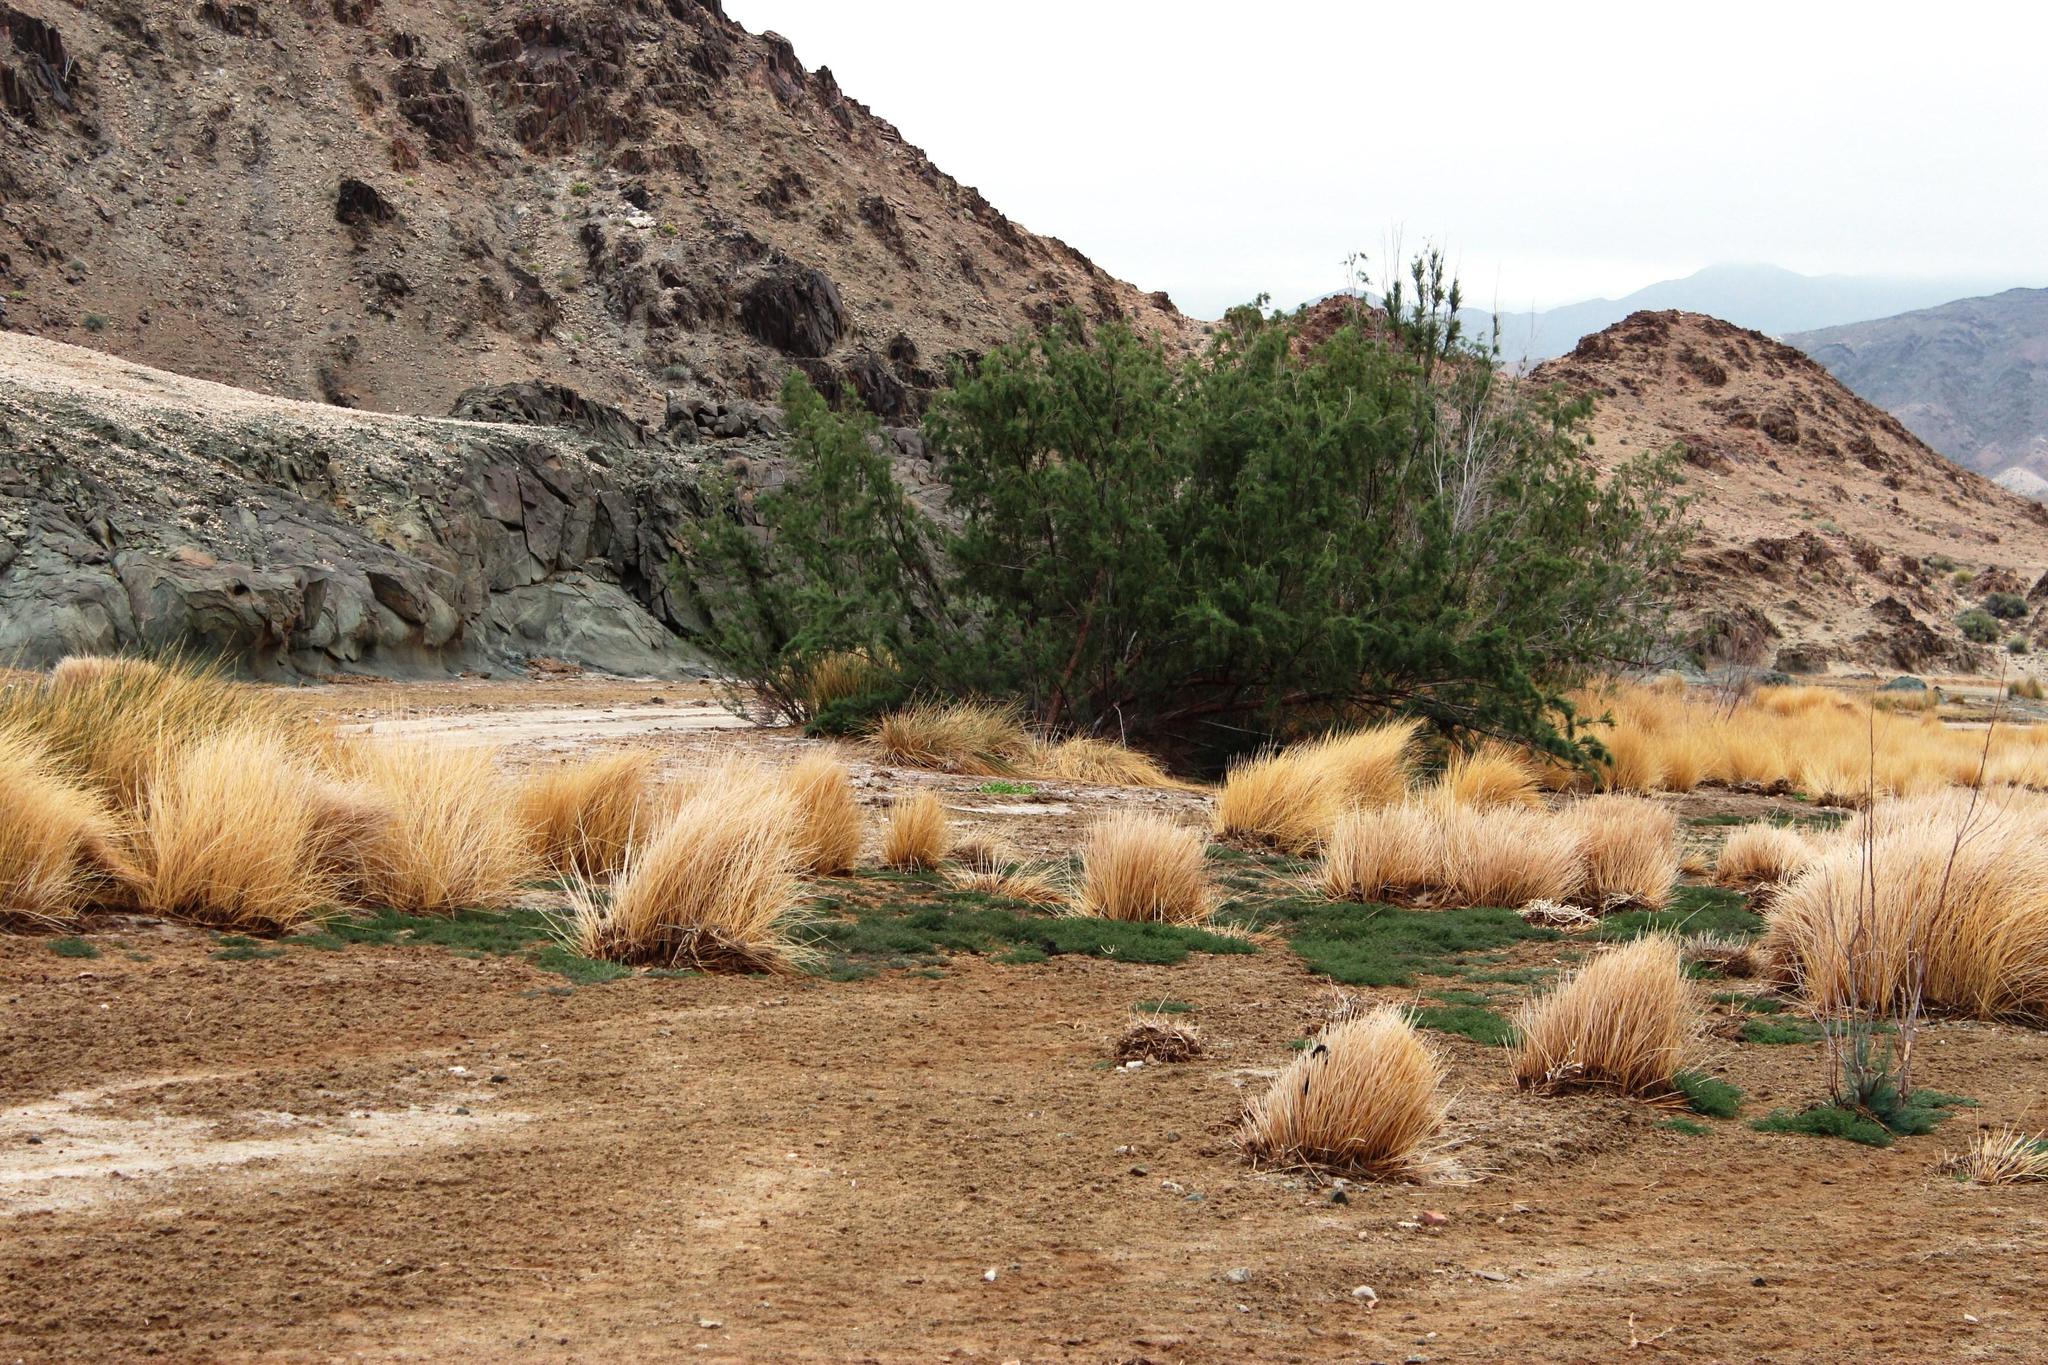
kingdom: Plantae
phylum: Tracheophyta
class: Magnoliopsida
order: Caryophyllales
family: Tamaricaceae
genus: Tamarix
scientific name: Tamarix usneoides
